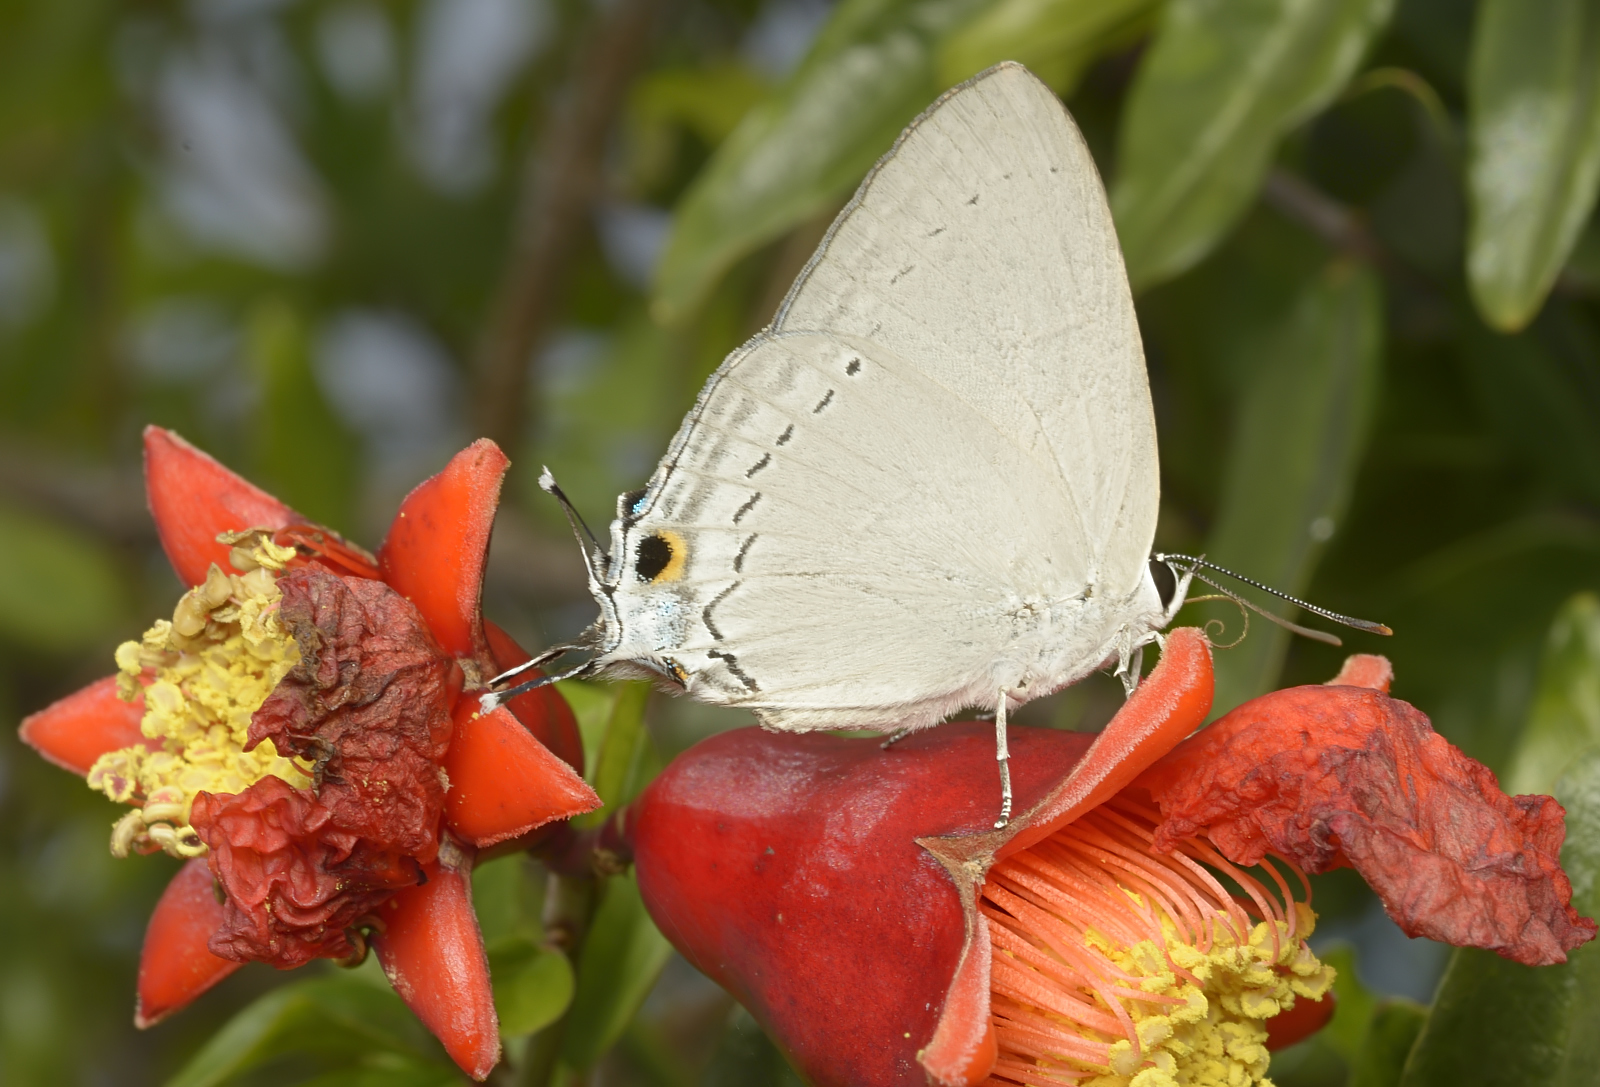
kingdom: Animalia
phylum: Arthropoda
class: Insecta
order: Lepidoptera
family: Lycaenidae
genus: Tajuria
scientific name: Tajuria cippus
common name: Peacock royal
